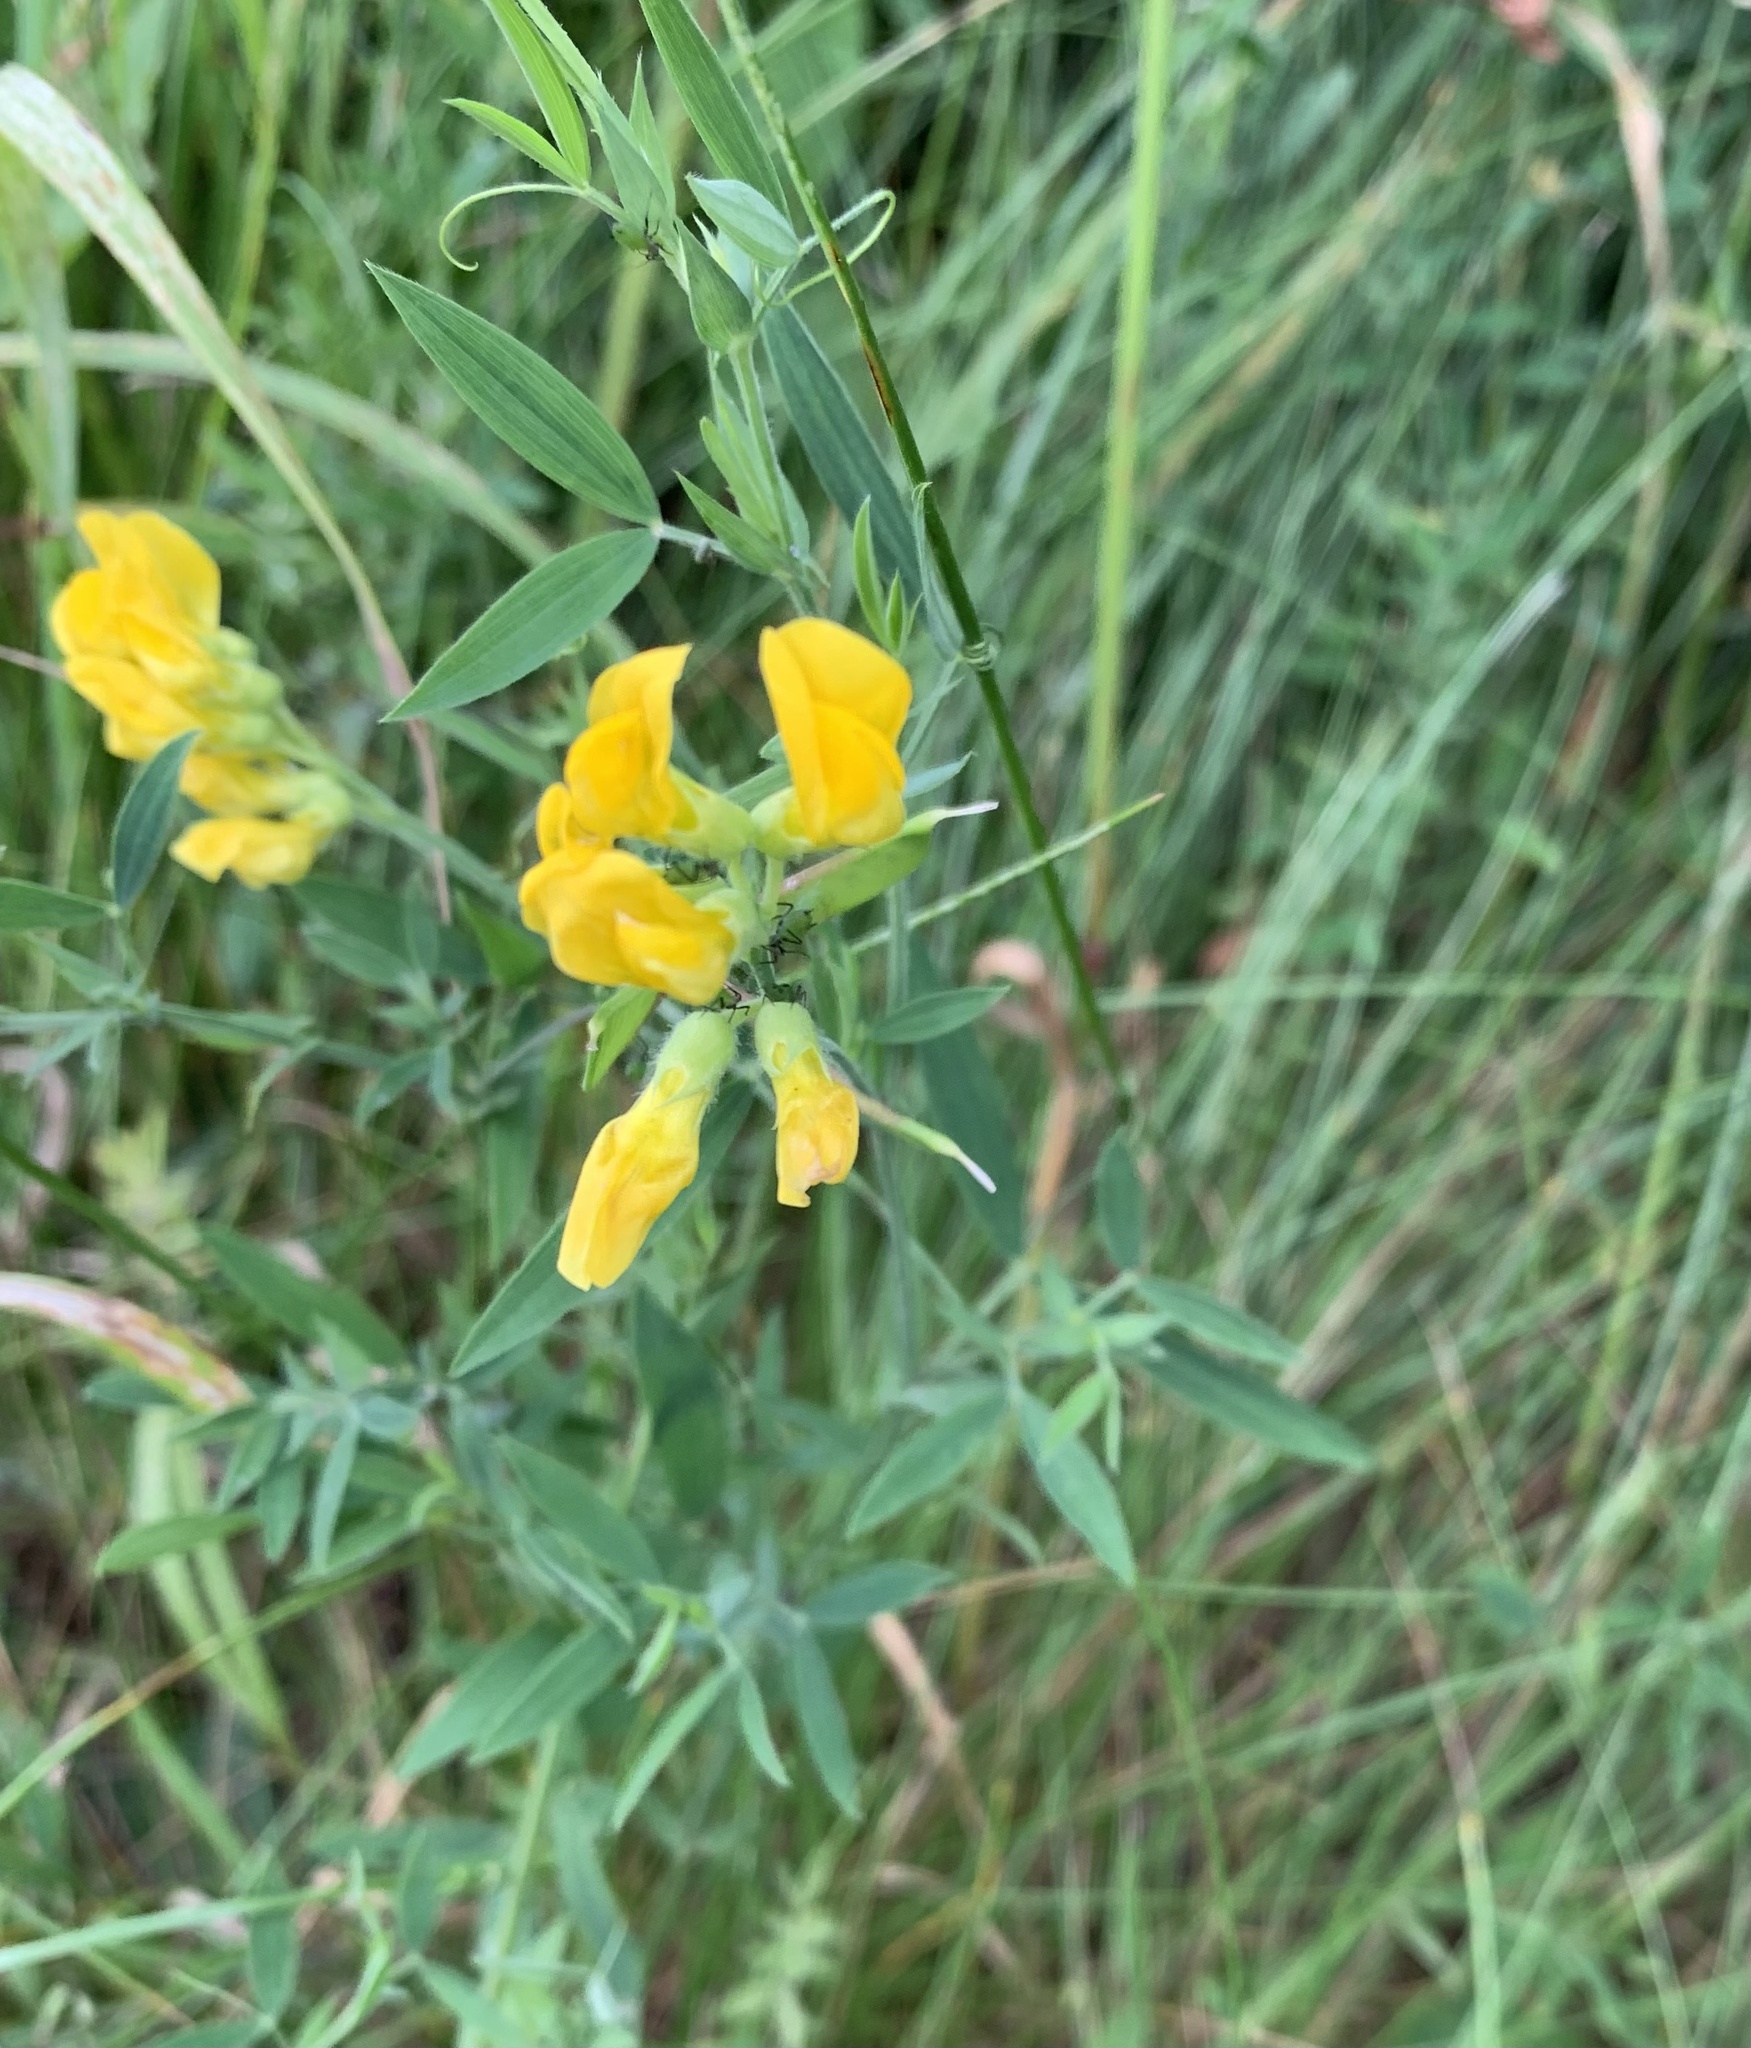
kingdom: Plantae
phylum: Tracheophyta
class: Magnoliopsida
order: Fabales
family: Fabaceae
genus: Lathyrus
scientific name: Lathyrus pratensis
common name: Meadow vetchling
